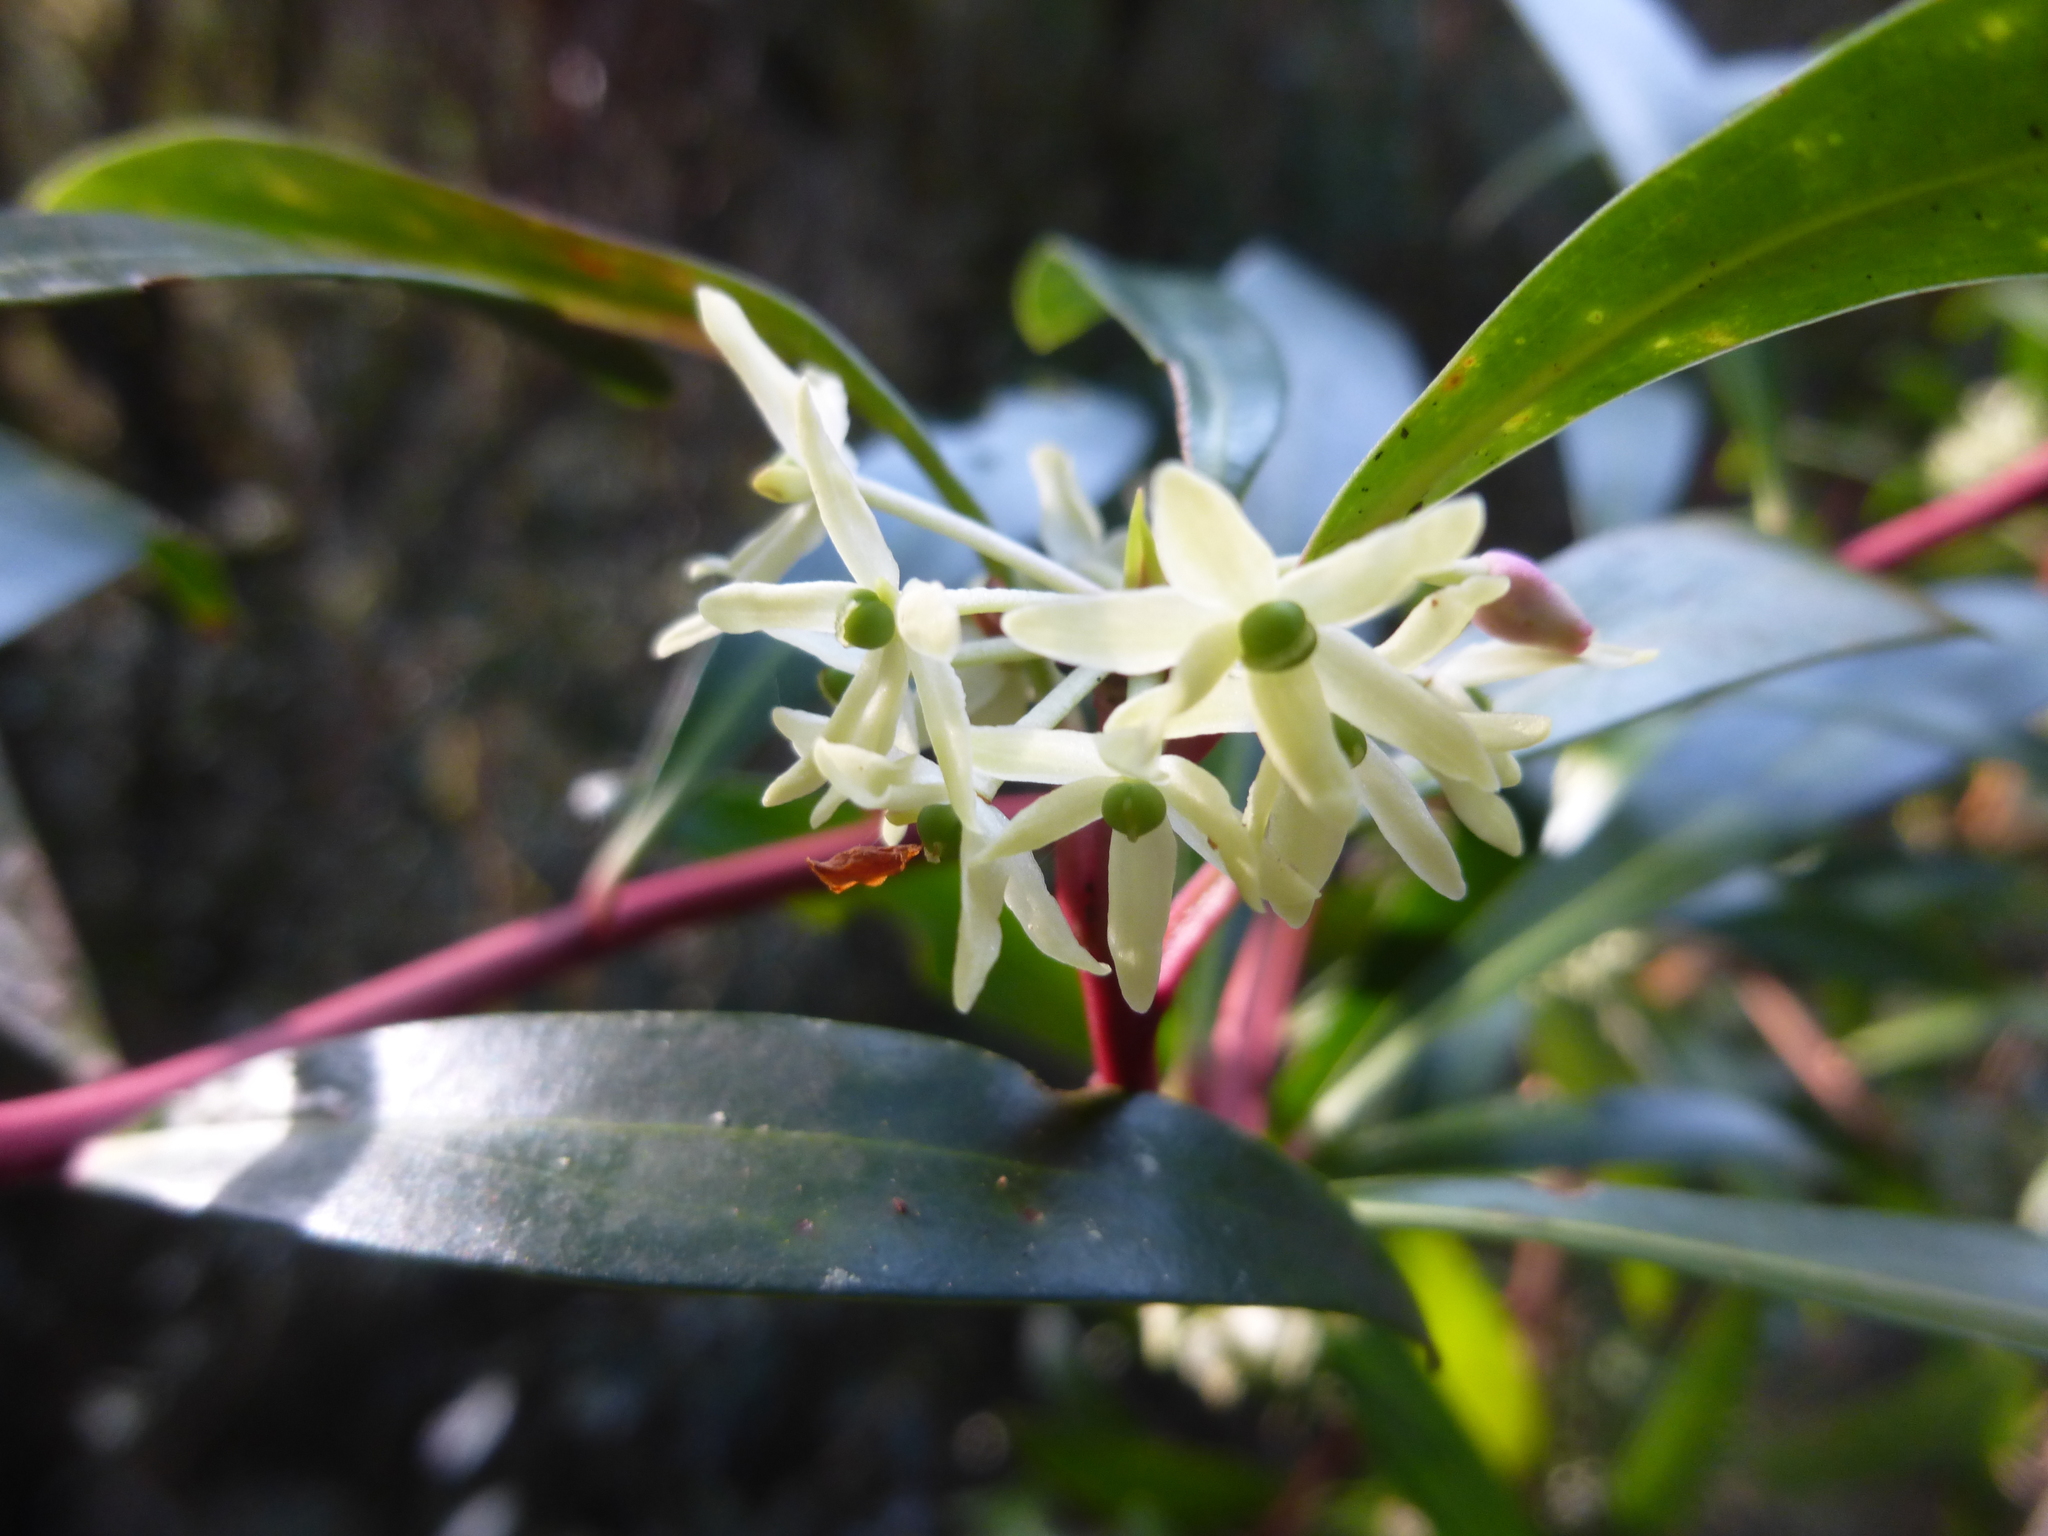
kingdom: Plantae
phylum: Tracheophyta
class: Magnoliopsida
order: Canellales
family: Winteraceae
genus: Drimys
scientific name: Drimys aromatica
